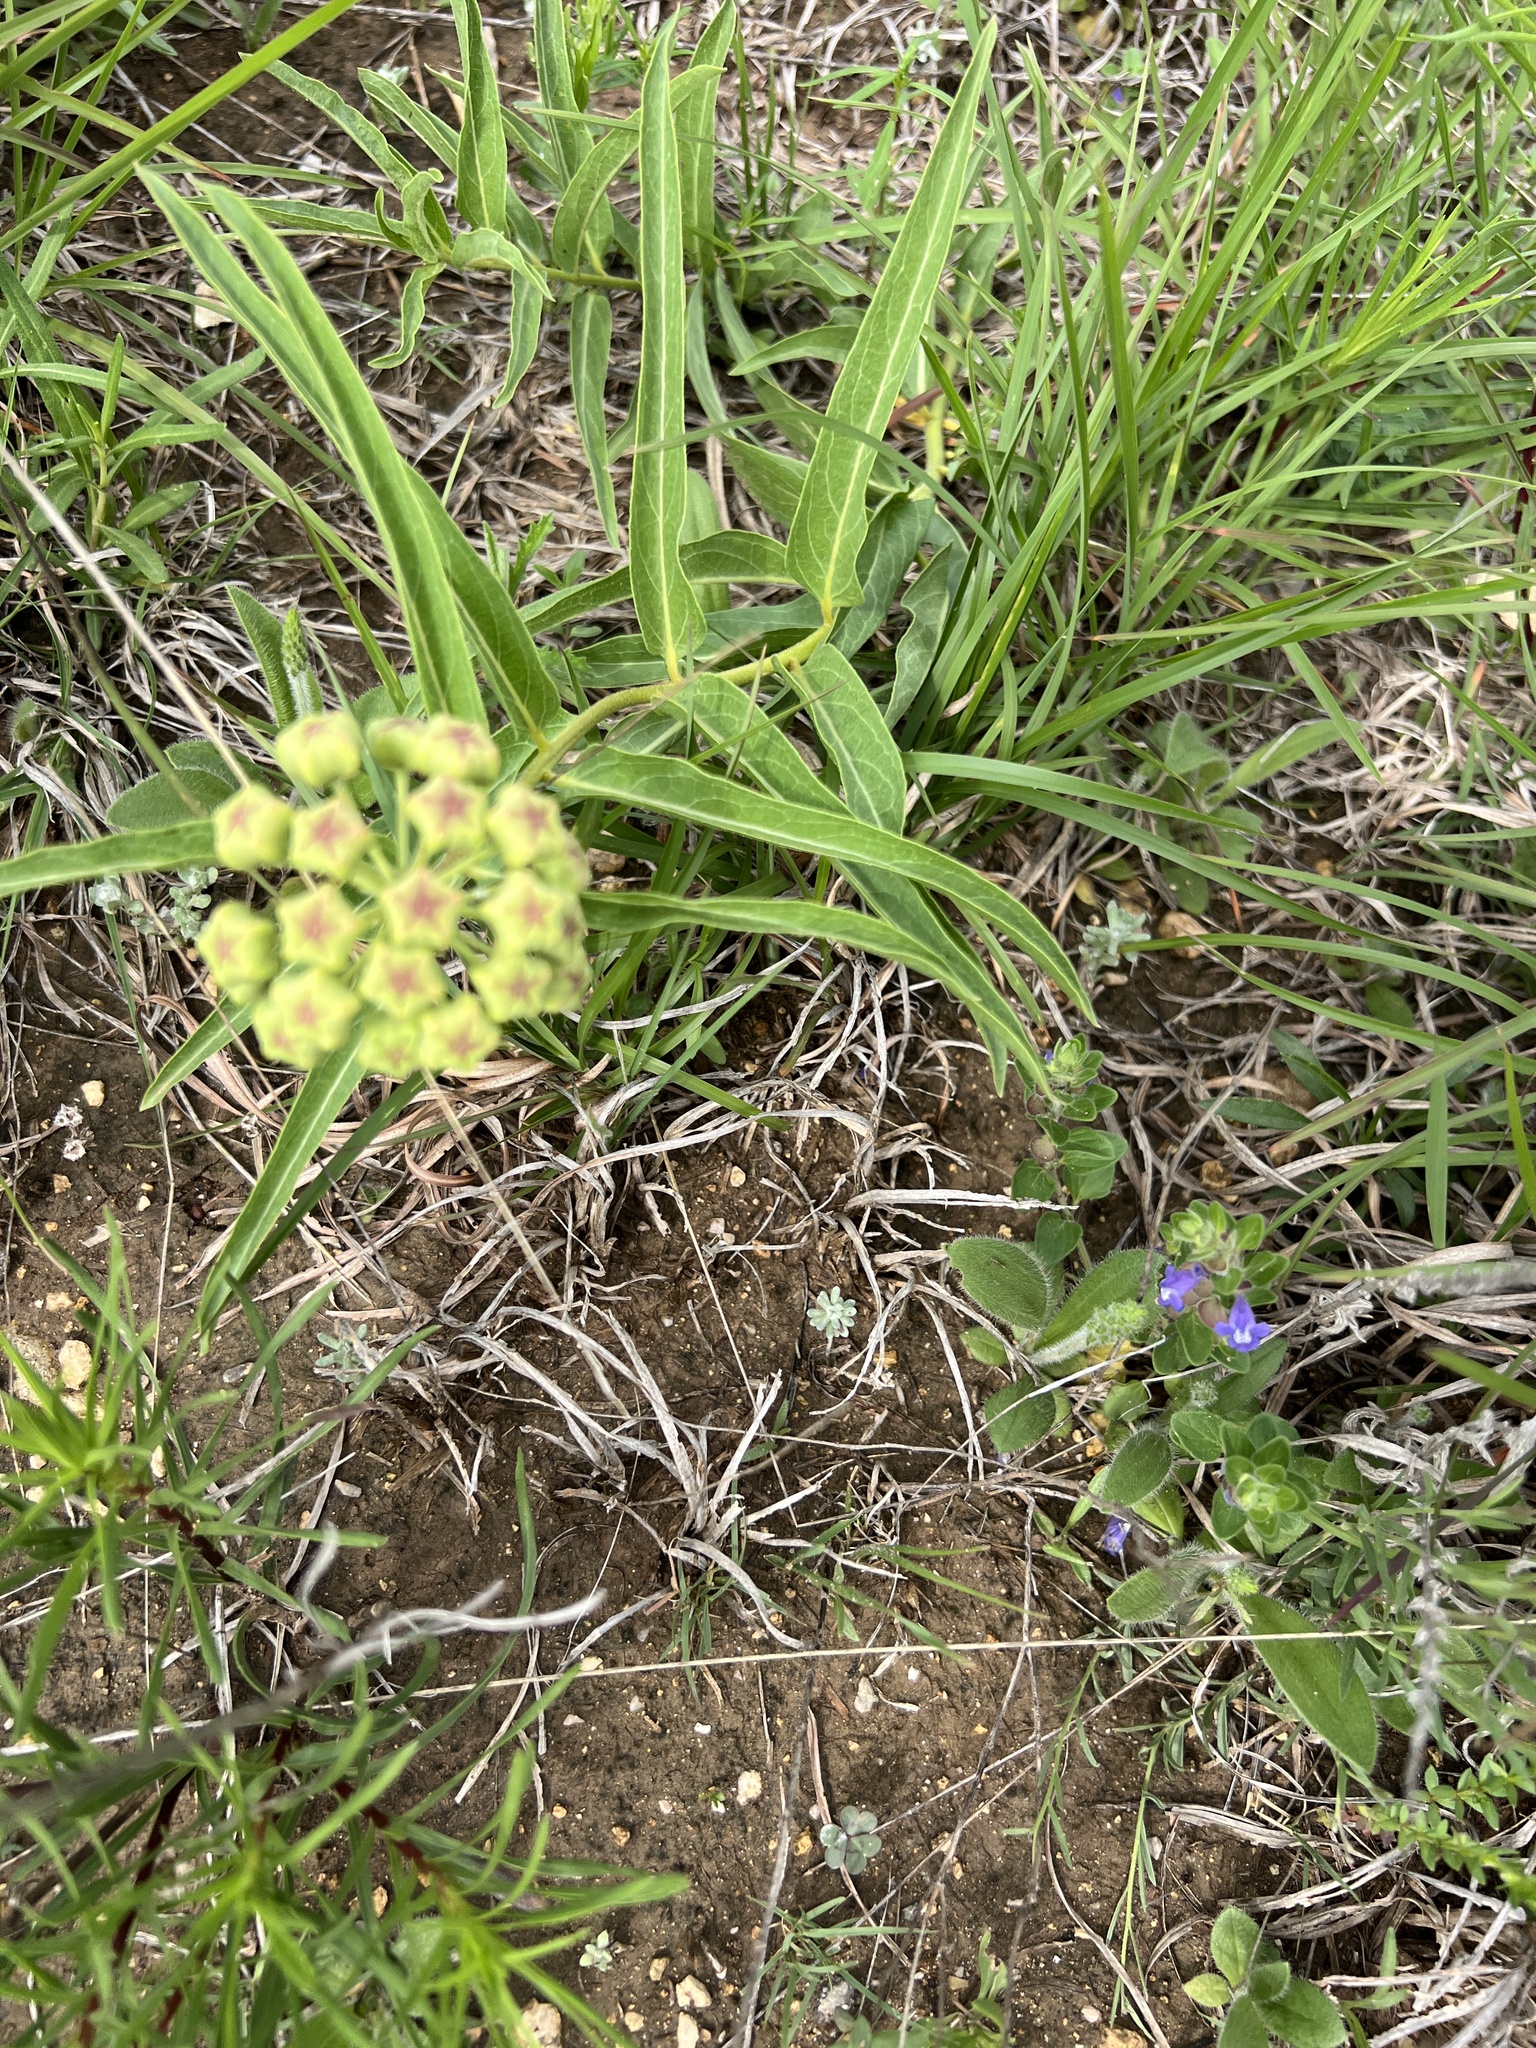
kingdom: Plantae
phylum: Tracheophyta
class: Magnoliopsida
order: Gentianales
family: Apocynaceae
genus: Asclepias
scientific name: Asclepias asperula
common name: Antelope horns
